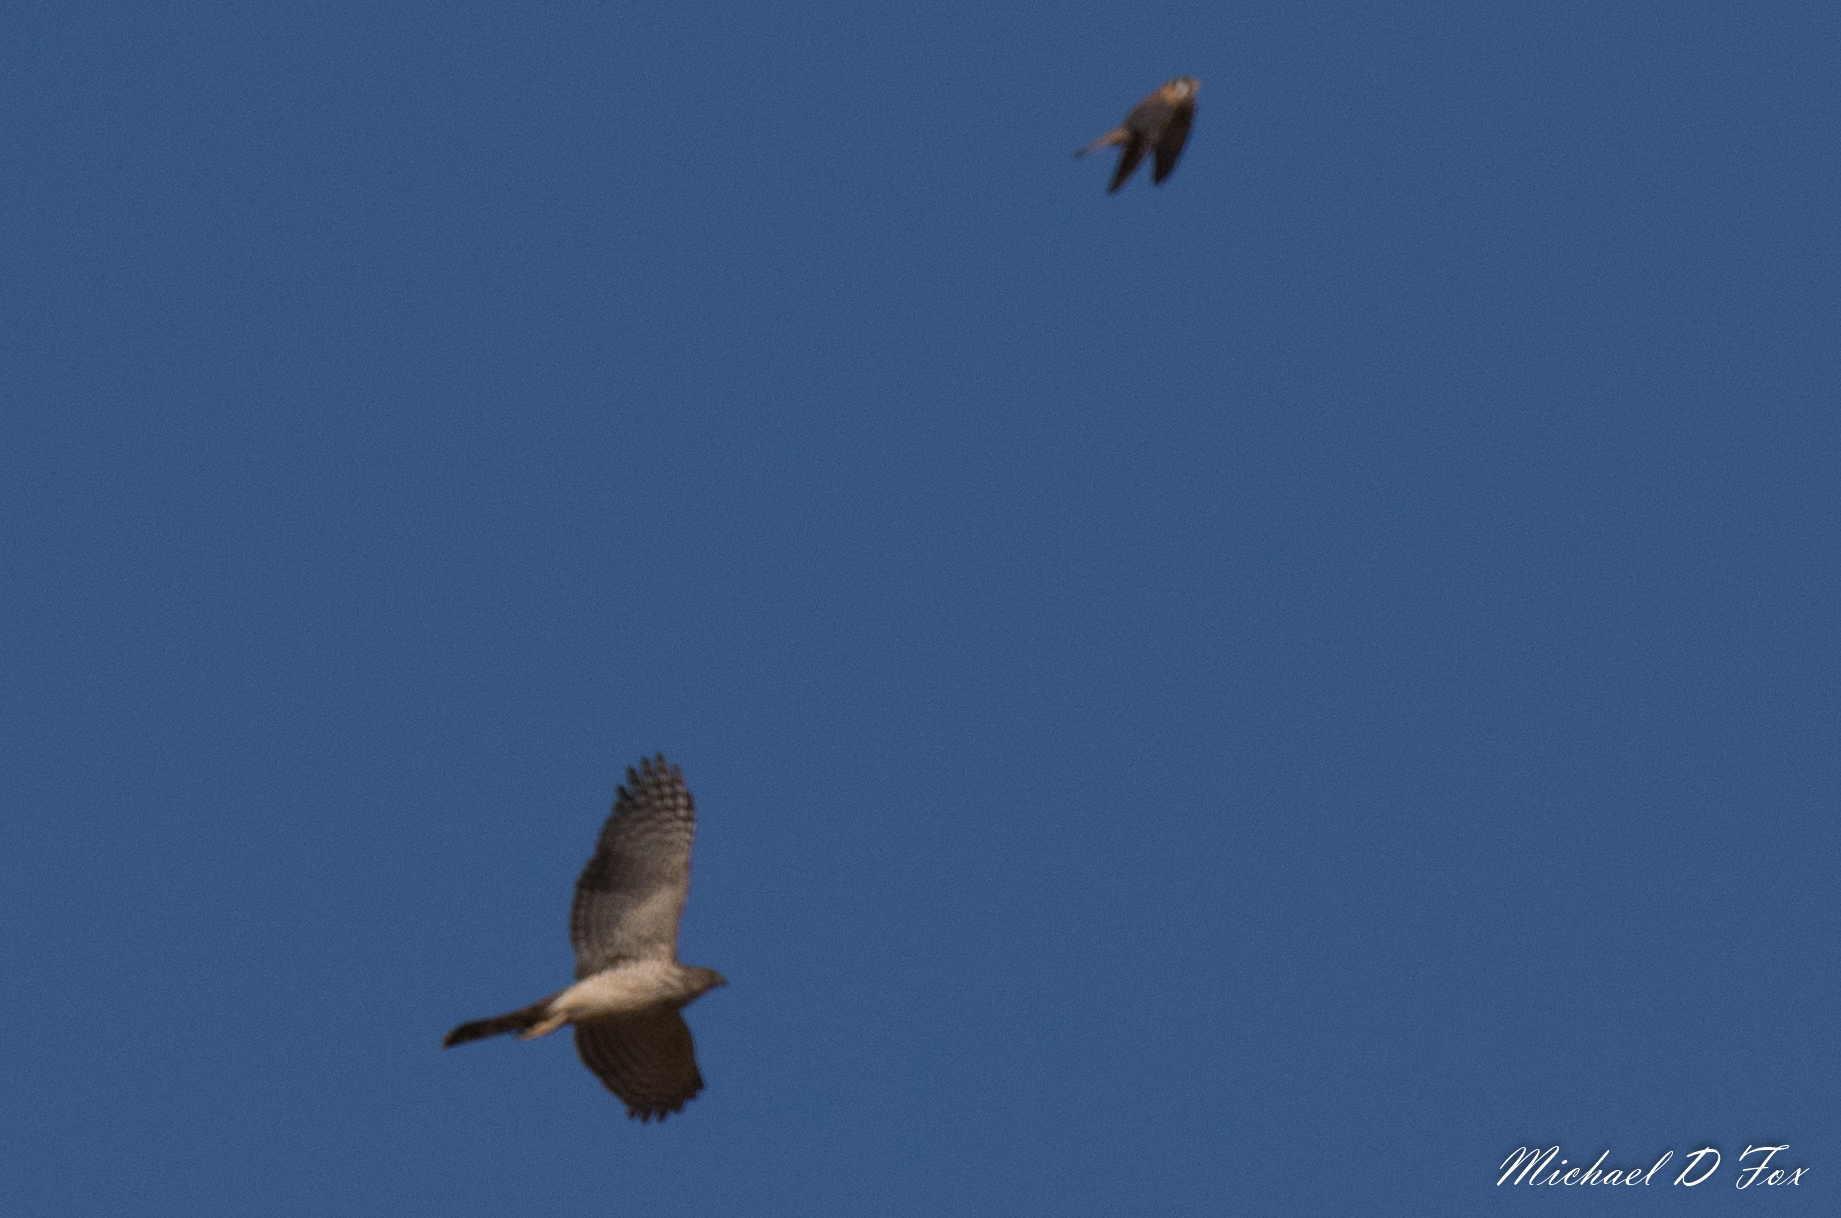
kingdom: Animalia
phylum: Chordata
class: Aves
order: Accipitriformes
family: Accipitridae
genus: Accipiter
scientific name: Accipiter cooperii
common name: Cooper's hawk
